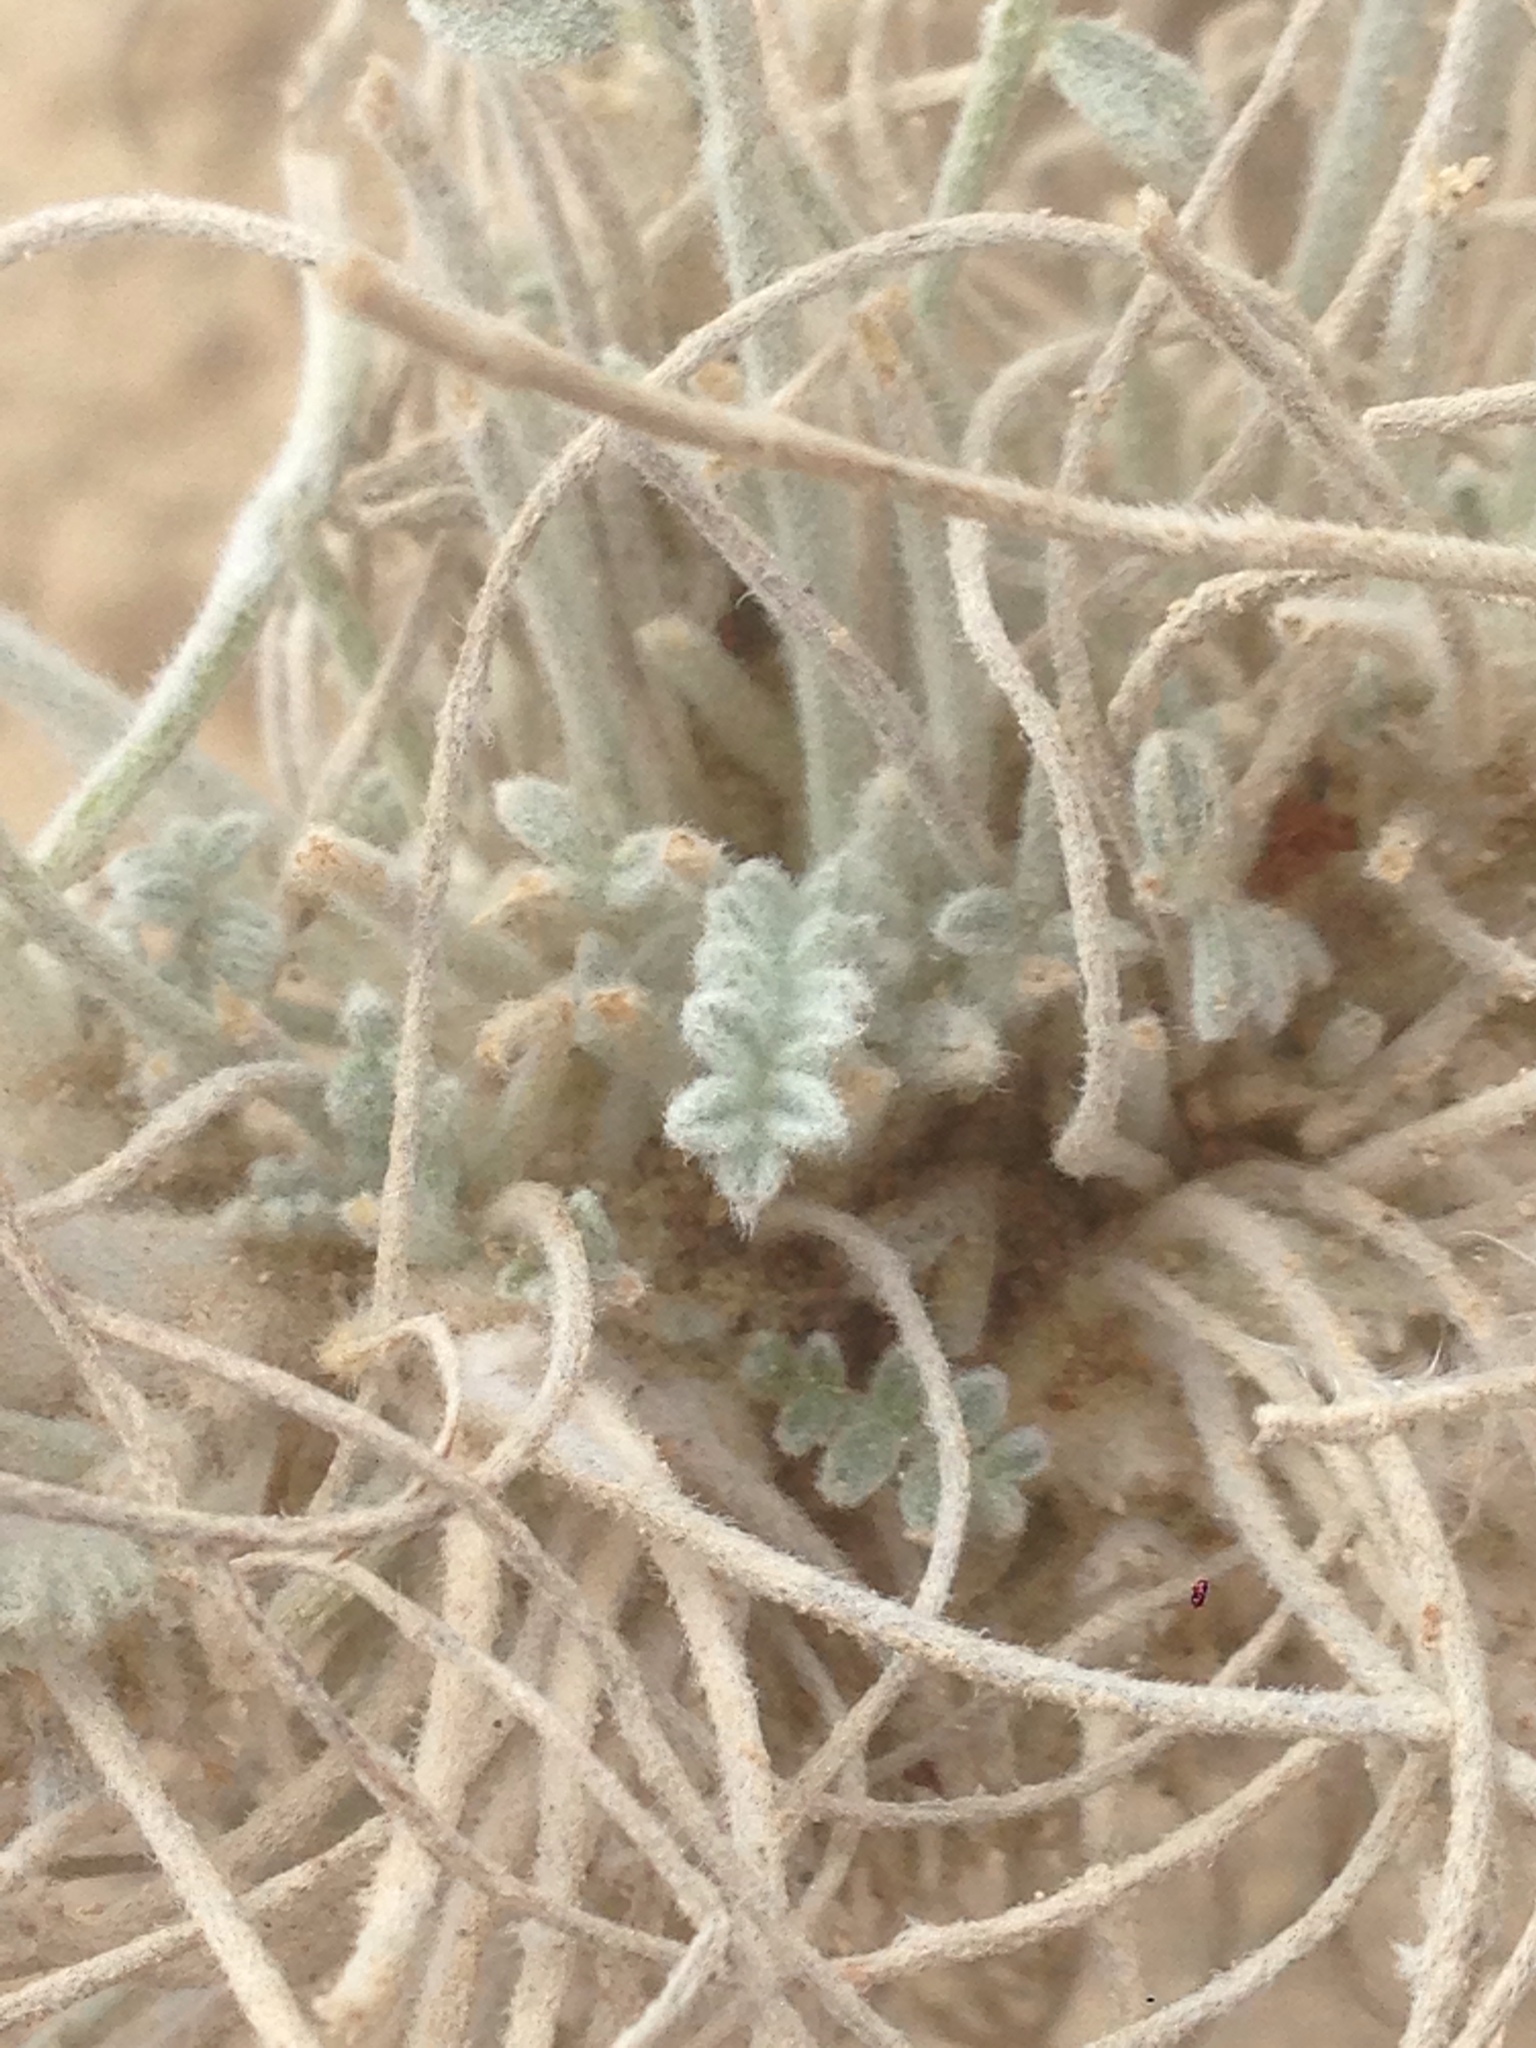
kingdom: Plantae
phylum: Tracheophyta
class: Magnoliopsida
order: Fabales
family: Fabaceae
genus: Astragalus
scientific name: Astragalus traskiae
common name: Trask's milk-vetch
